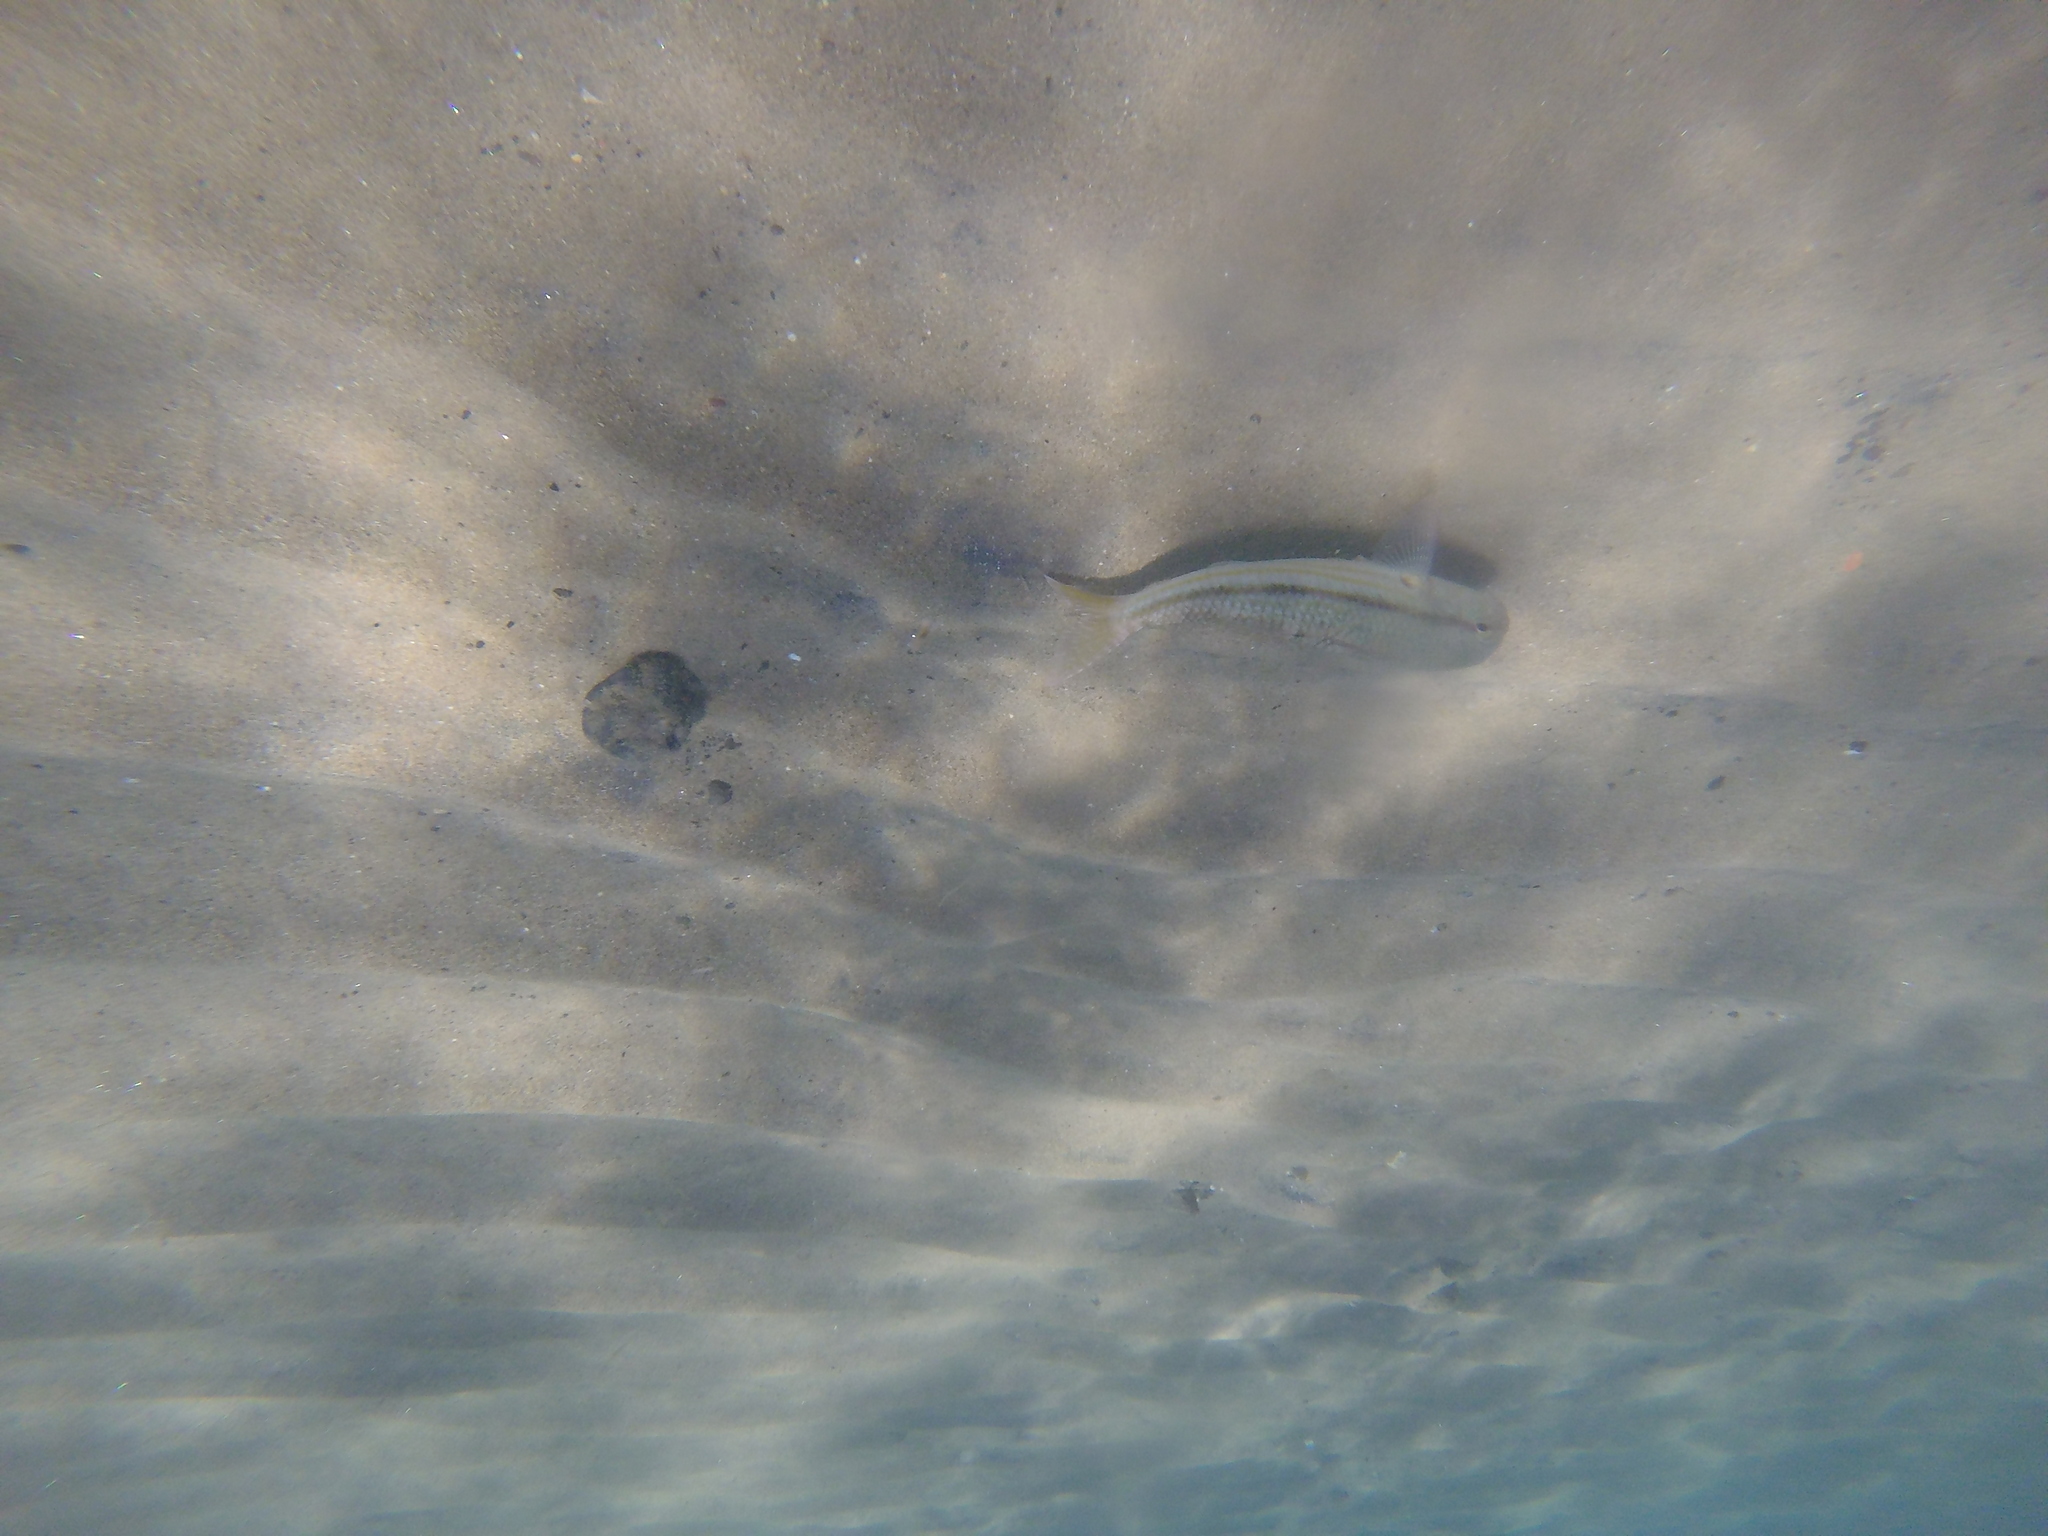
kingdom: Animalia
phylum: Chordata
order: Perciformes
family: Mullidae
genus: Mullus
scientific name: Mullus surmuletus
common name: Red mullet
